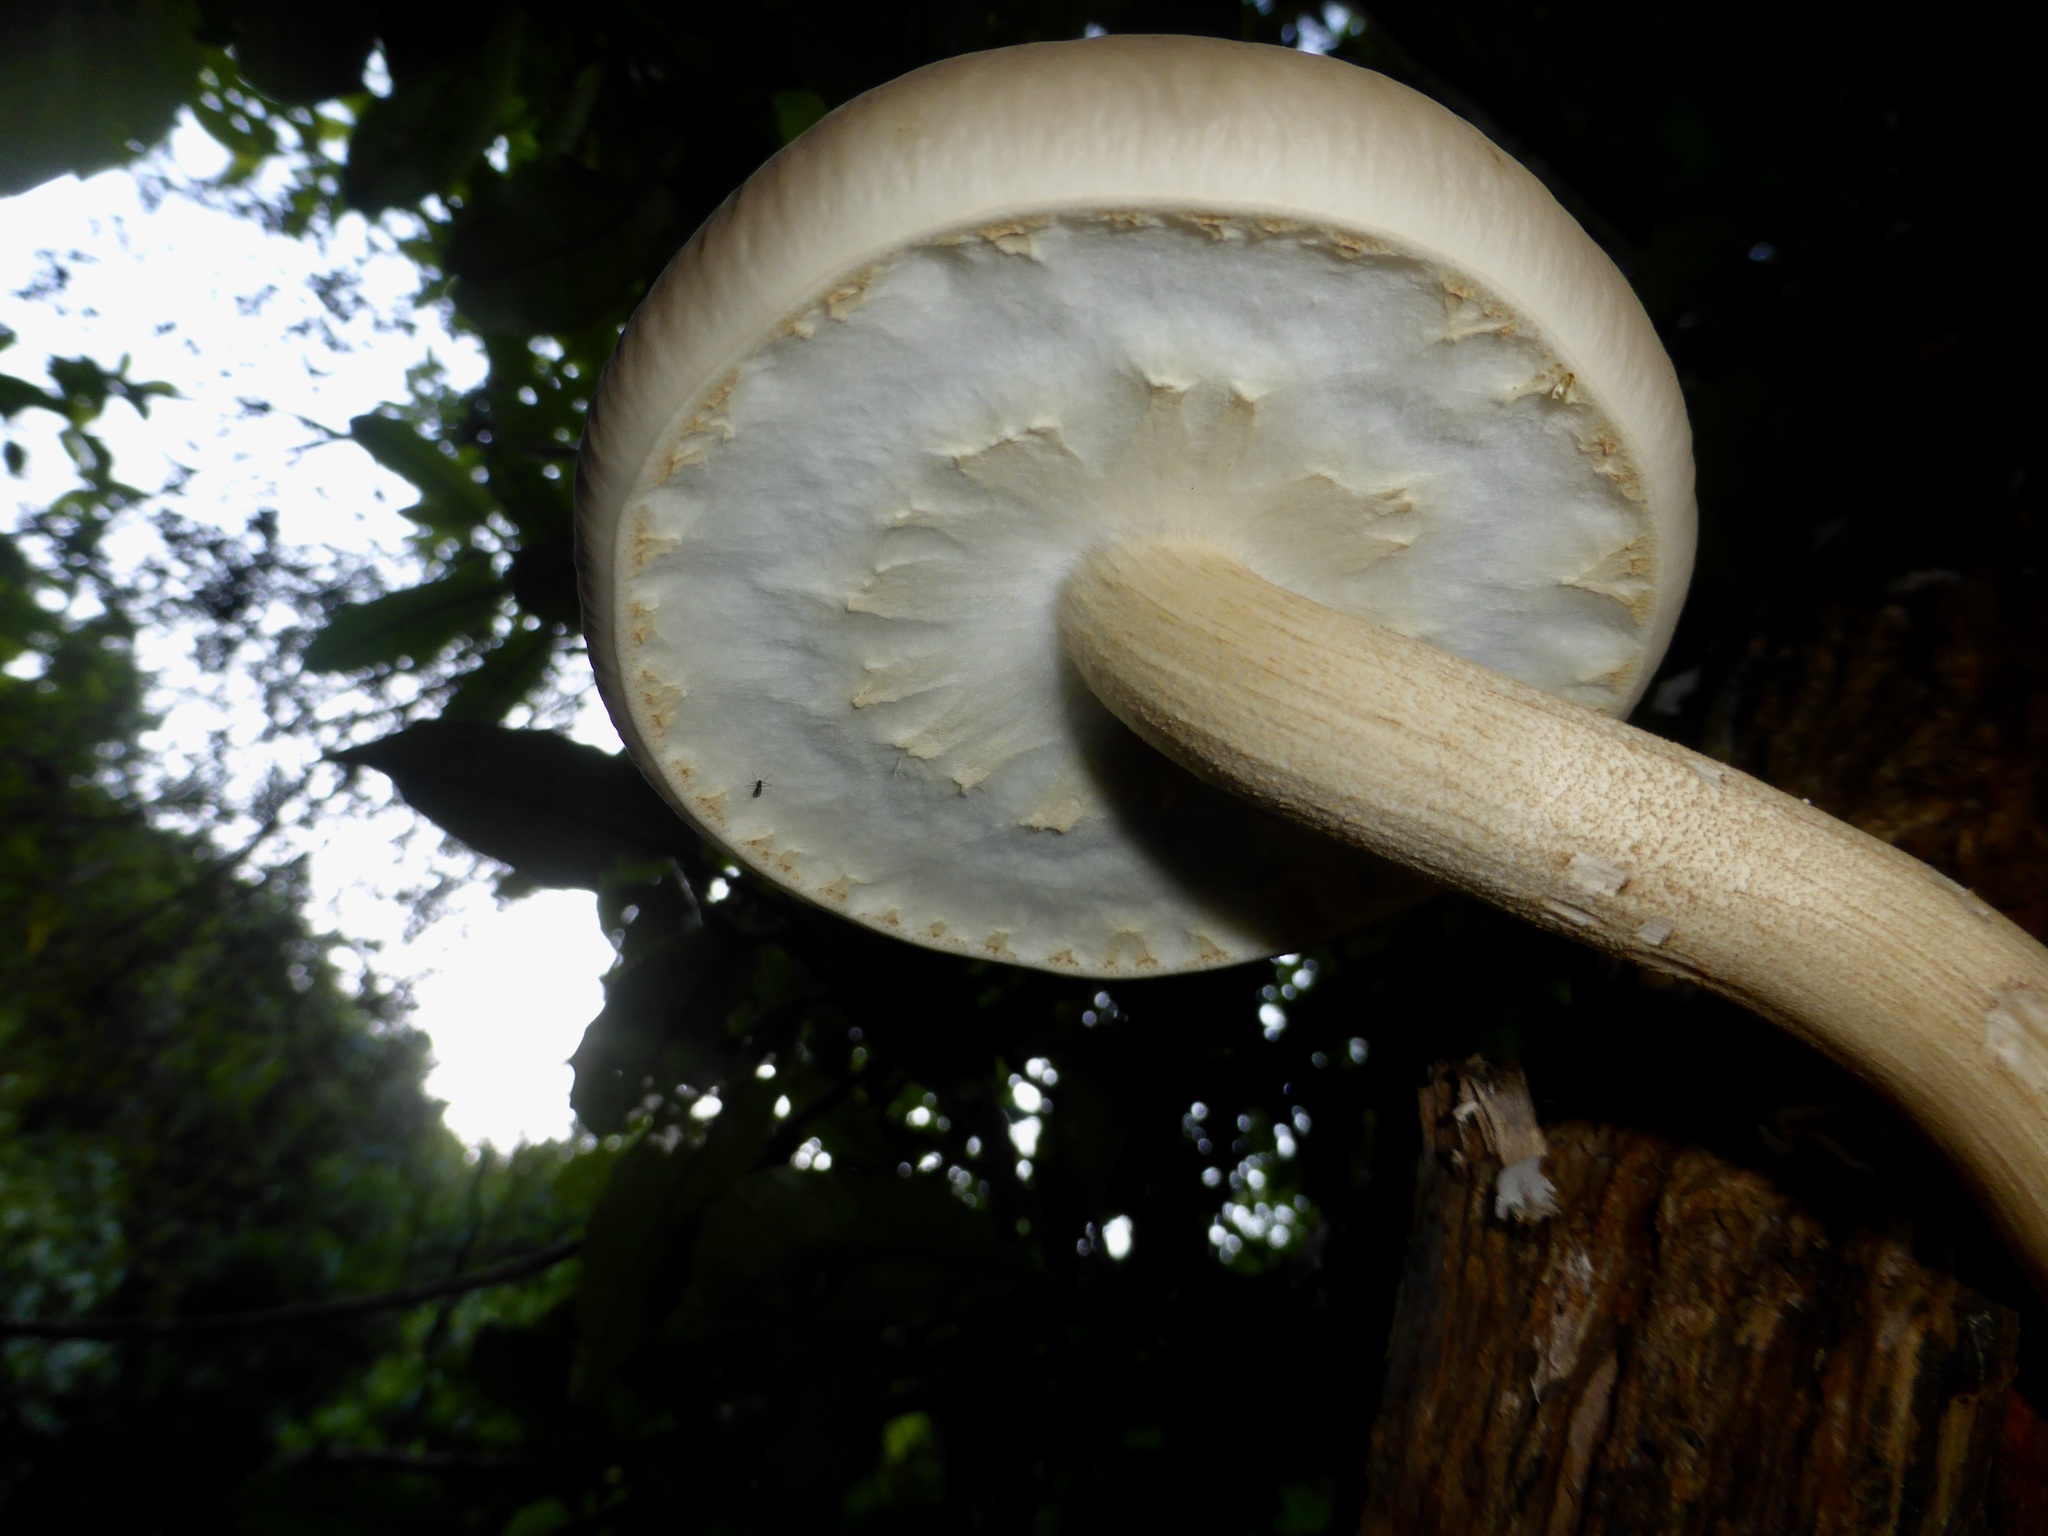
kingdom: Fungi
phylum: Basidiomycota
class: Agaricomycetes
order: Agaricales
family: Tubariaceae
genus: Cyclocybe
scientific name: Cyclocybe parasitica
